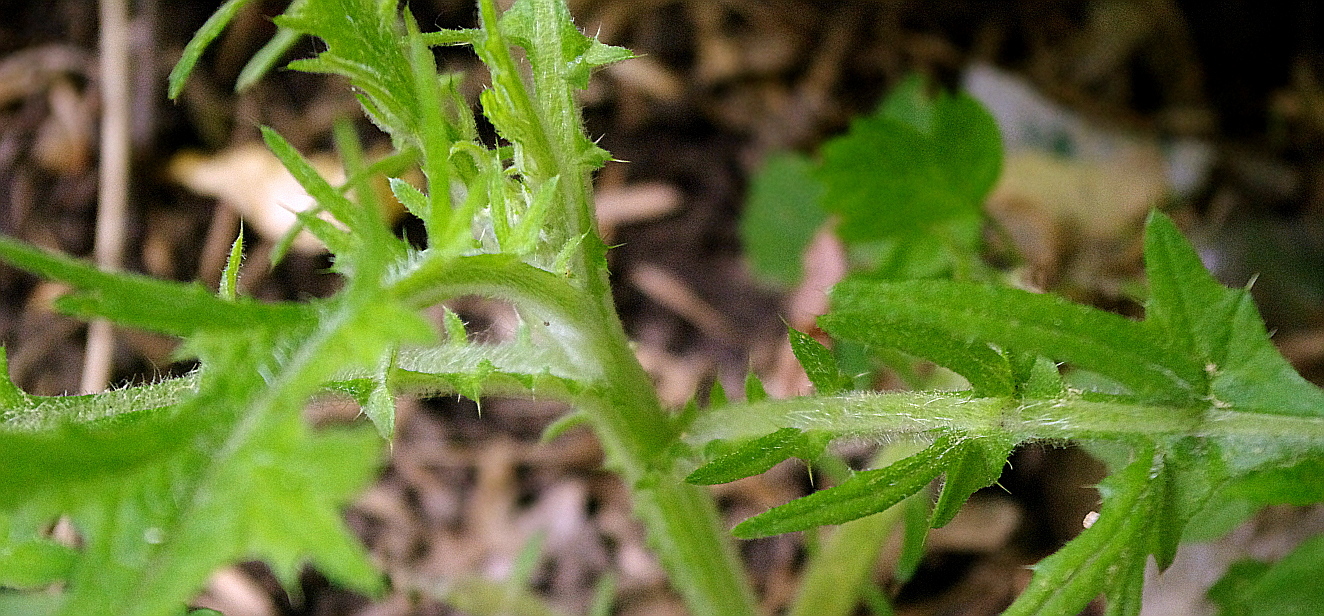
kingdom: Plantae
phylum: Tracheophyta
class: Magnoliopsida
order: Asterales
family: Asteraceae
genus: Cirsium
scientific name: Cirsium vulgare
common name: Bull thistle
